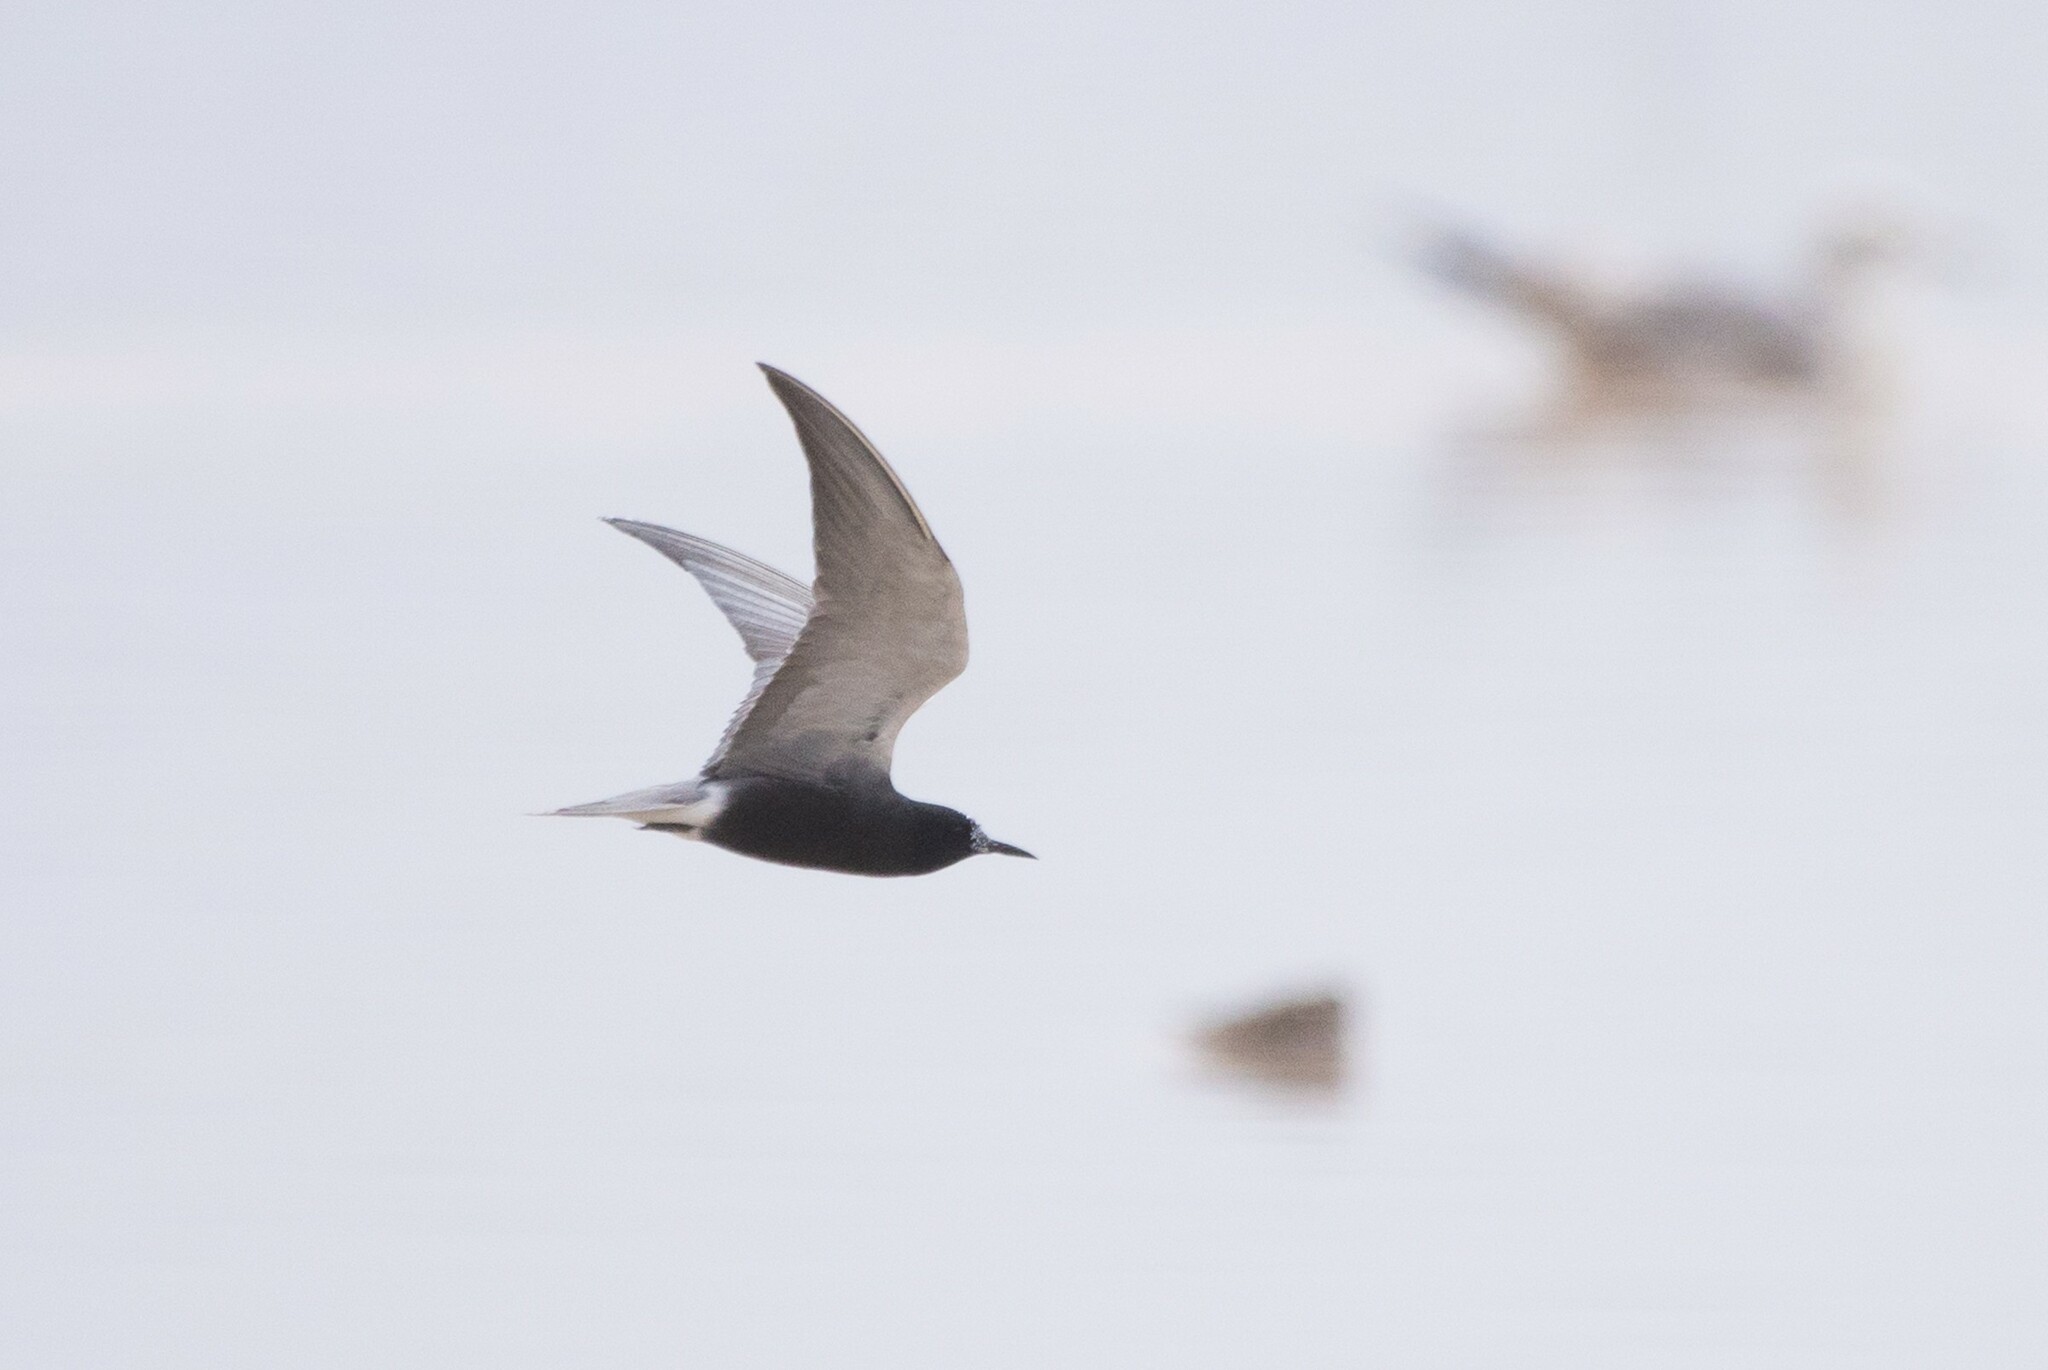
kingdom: Animalia
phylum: Chordata
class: Aves
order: Charadriiformes
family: Laridae
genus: Chlidonias
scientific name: Chlidonias niger
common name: Black tern
